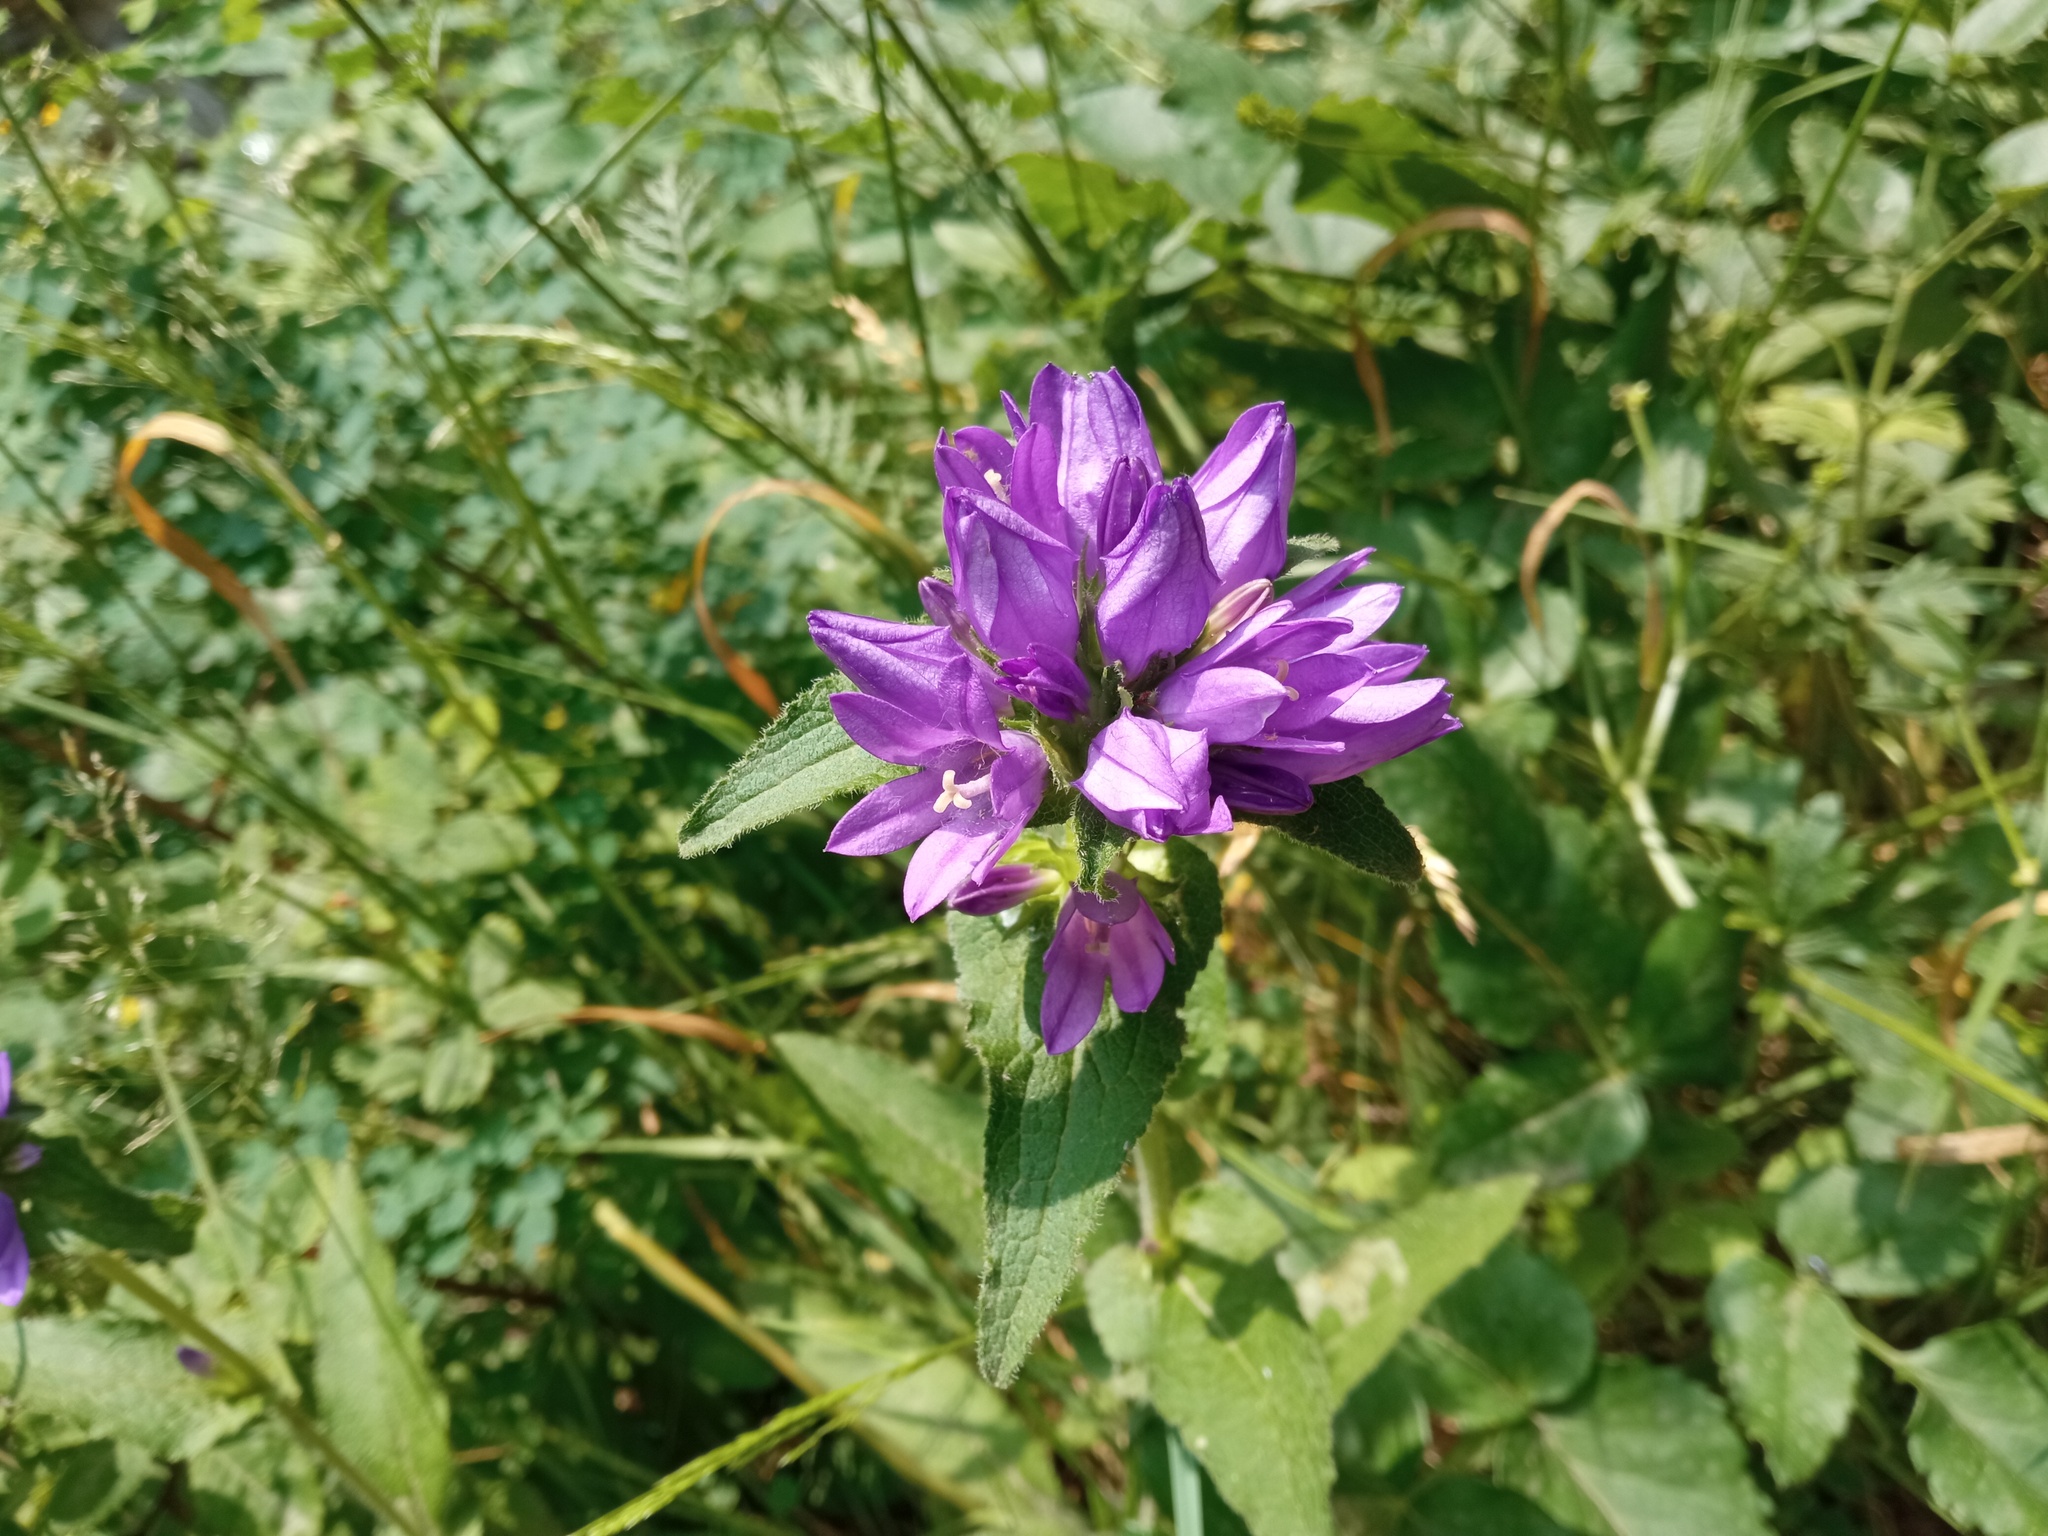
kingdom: Plantae
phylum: Tracheophyta
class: Magnoliopsida
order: Asterales
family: Campanulaceae
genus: Campanula
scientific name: Campanula glomerata
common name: Clustered bellflower
